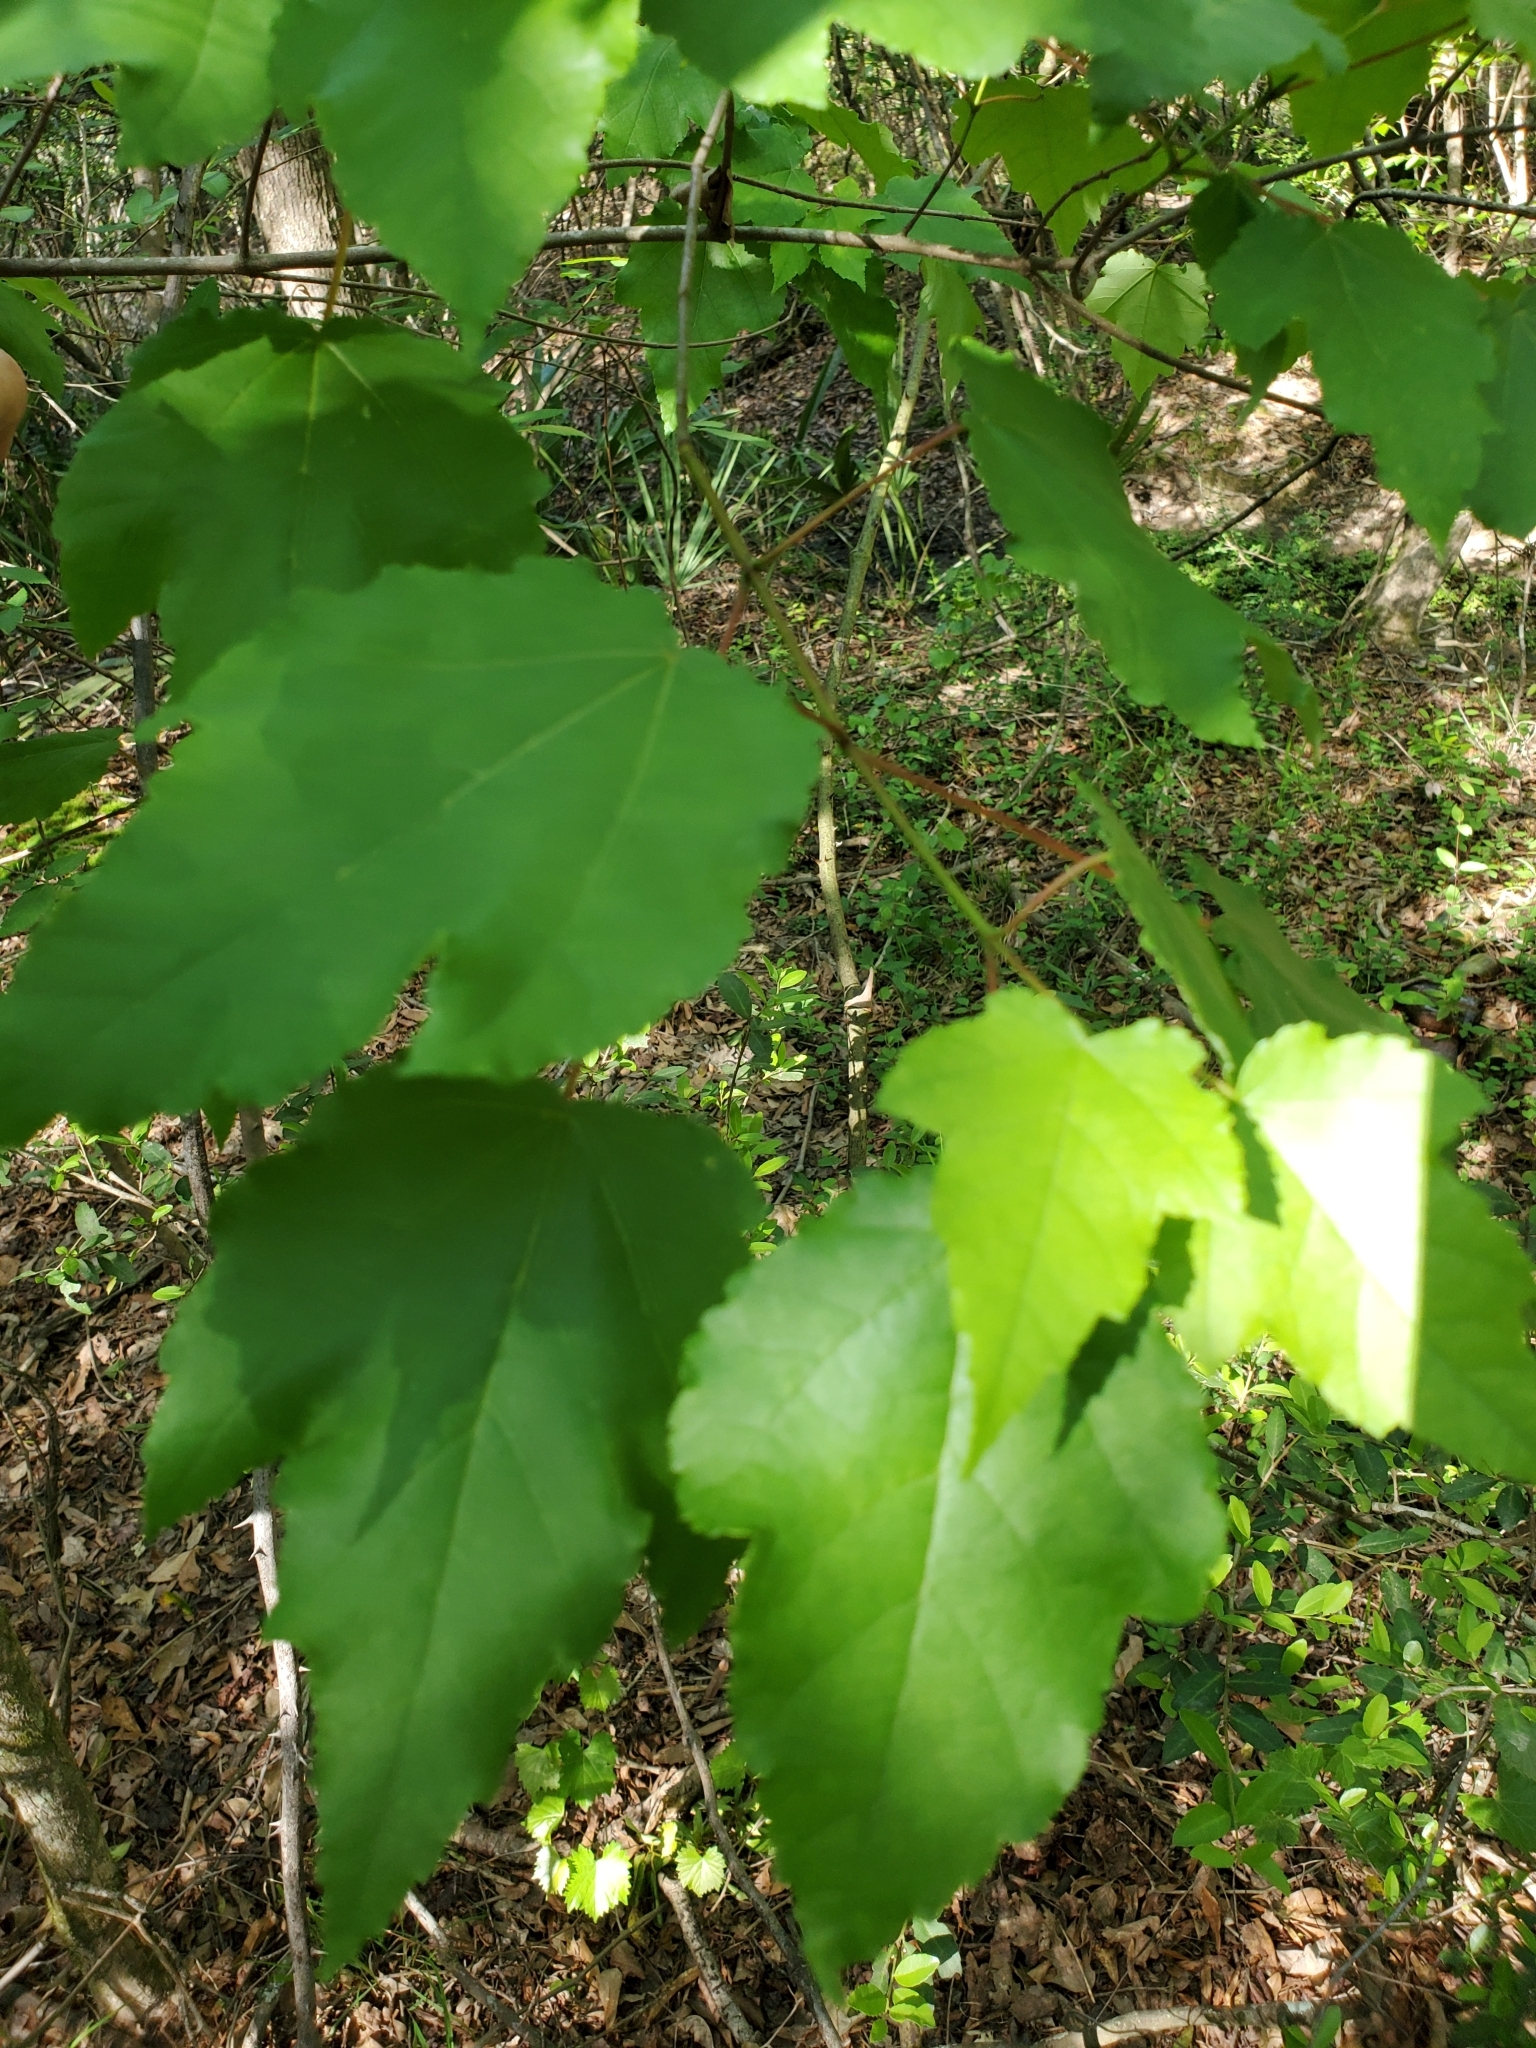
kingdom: Plantae
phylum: Tracheophyta
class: Magnoliopsida
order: Sapindales
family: Sapindaceae
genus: Acer
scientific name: Acer rubrum
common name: Red maple
